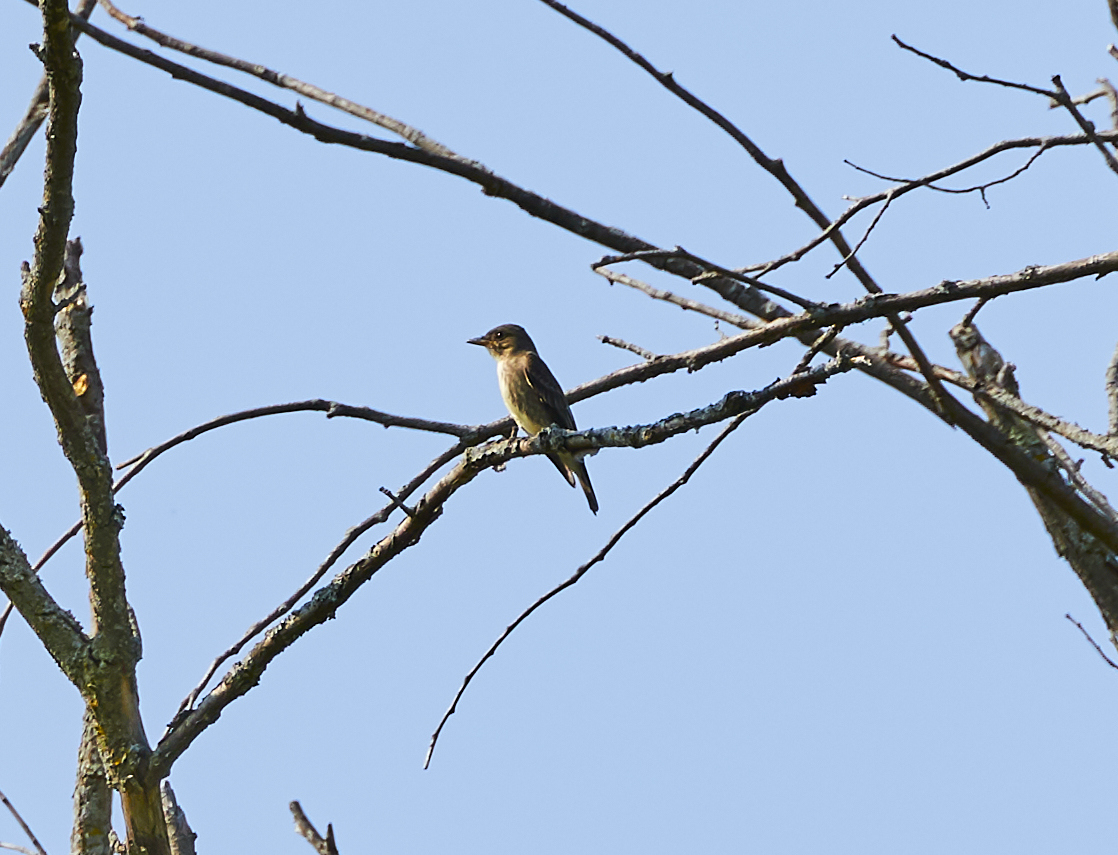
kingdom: Animalia
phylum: Chordata
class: Aves
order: Passeriformes
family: Tyrannidae
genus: Contopus
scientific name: Contopus cooperi
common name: Olive-sided flycatcher
